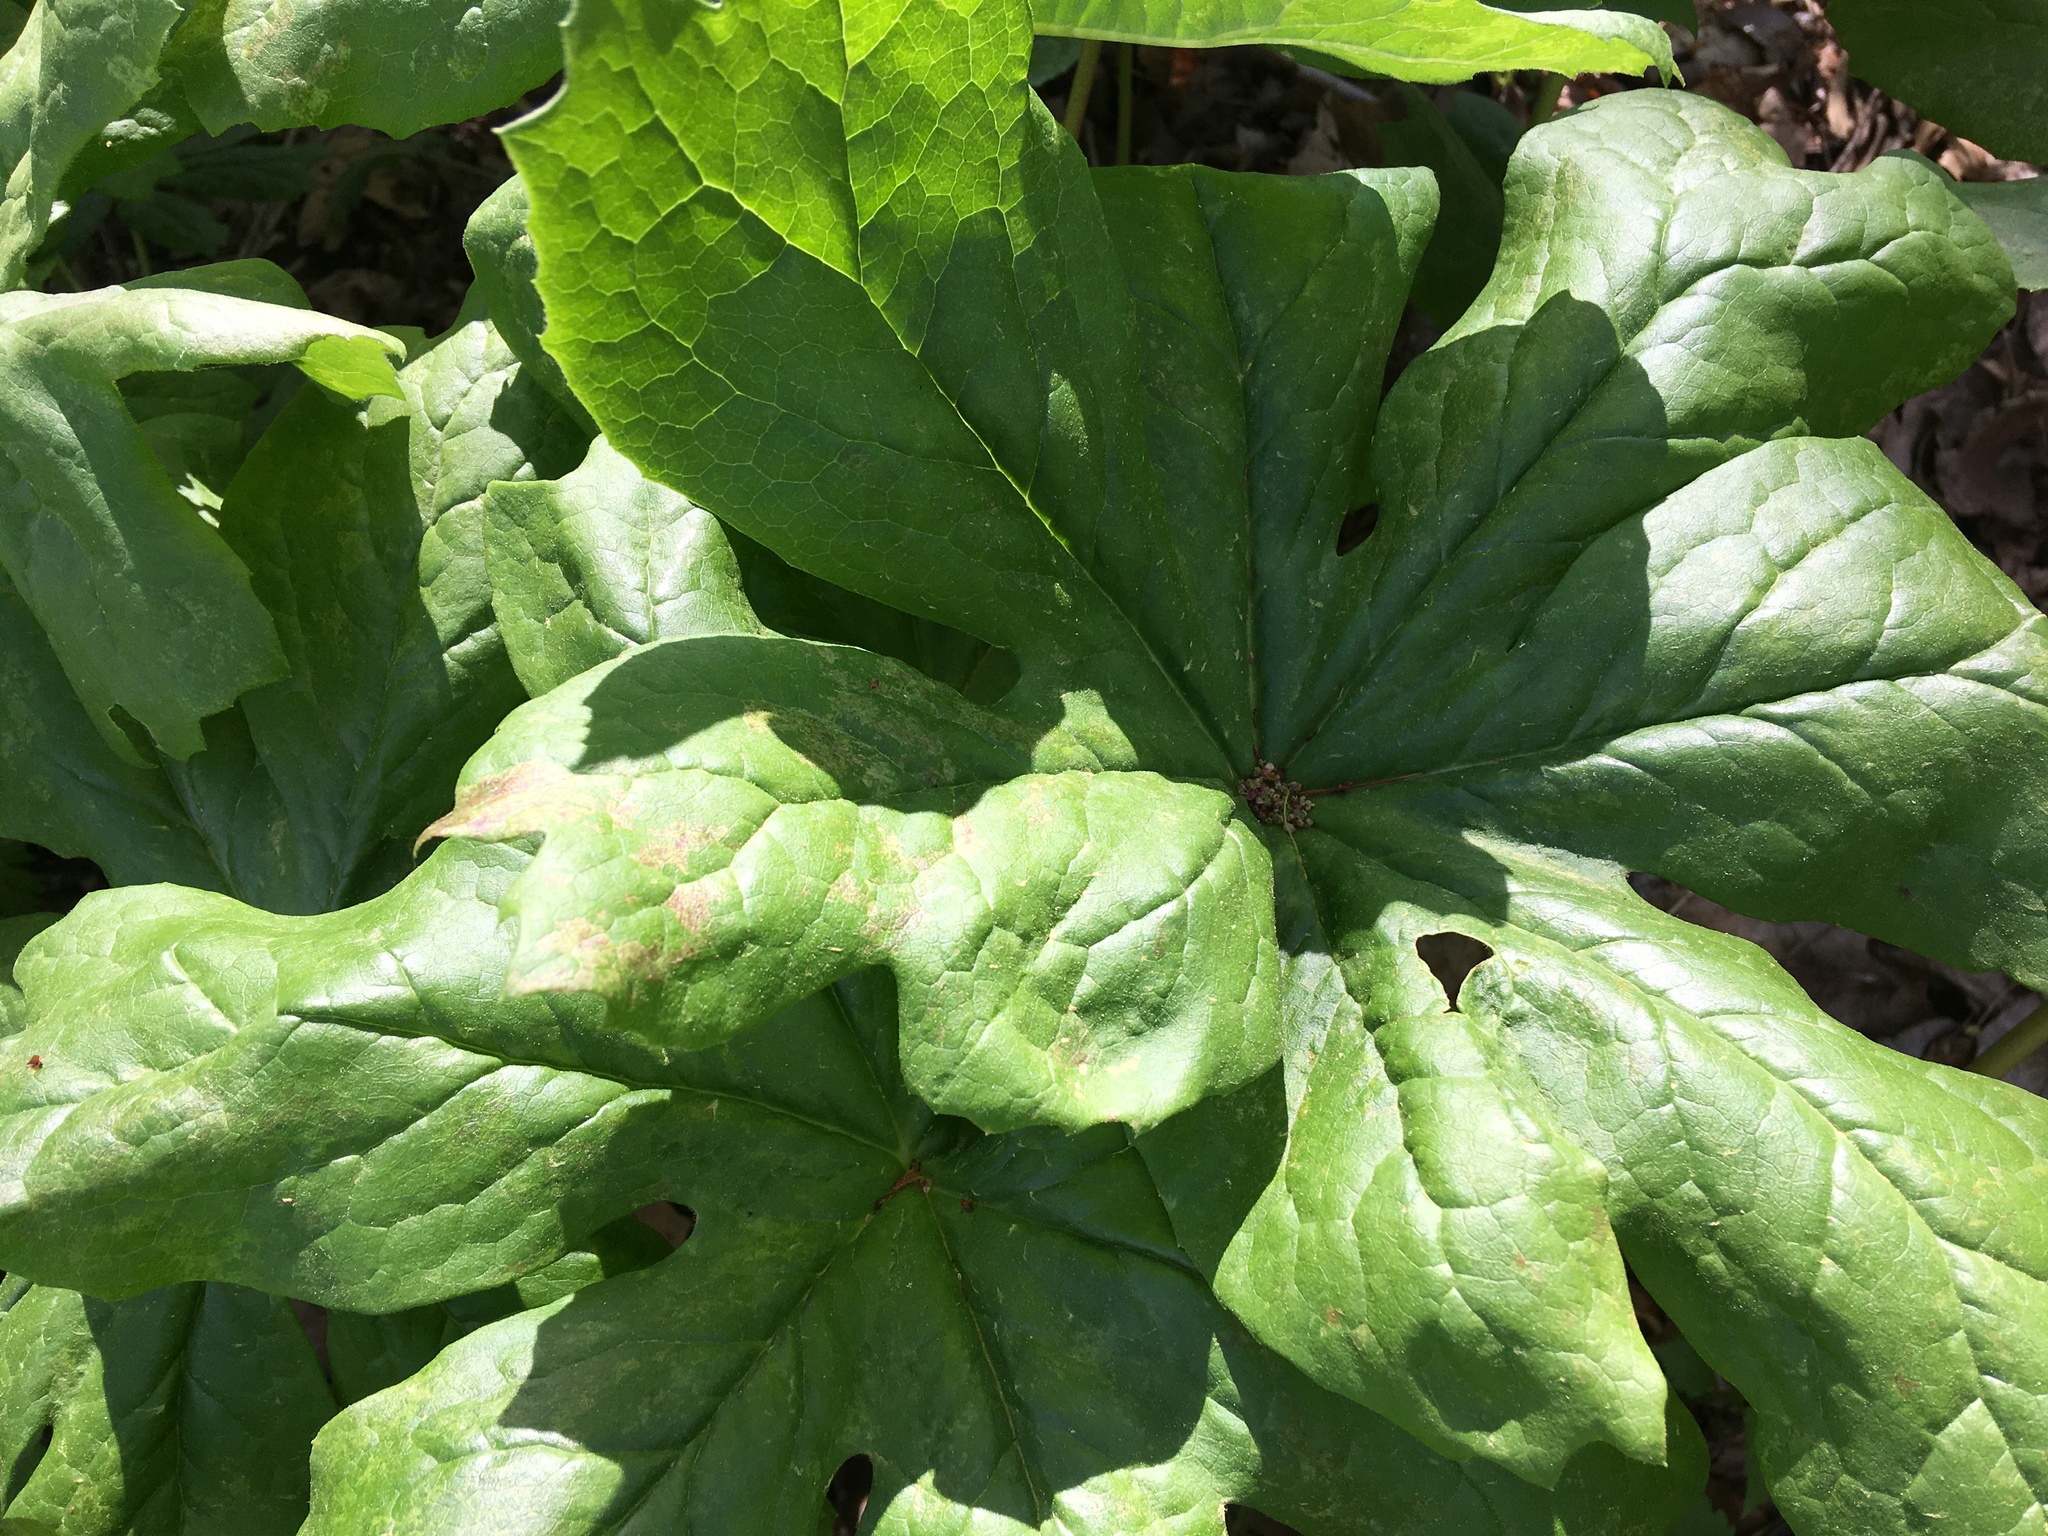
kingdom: Plantae
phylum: Tracheophyta
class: Magnoliopsida
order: Ranunculales
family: Berberidaceae
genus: Podophyllum
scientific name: Podophyllum peltatum
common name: Wild mandrake
